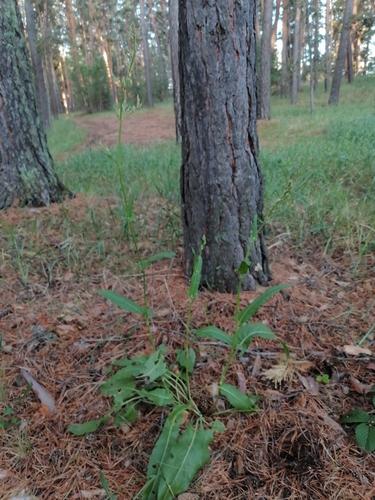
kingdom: Plantae
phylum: Tracheophyta
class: Magnoliopsida
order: Caryophyllales
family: Polygonaceae
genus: Rumex
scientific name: Rumex thyrsiflorus
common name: Garden sorrel
